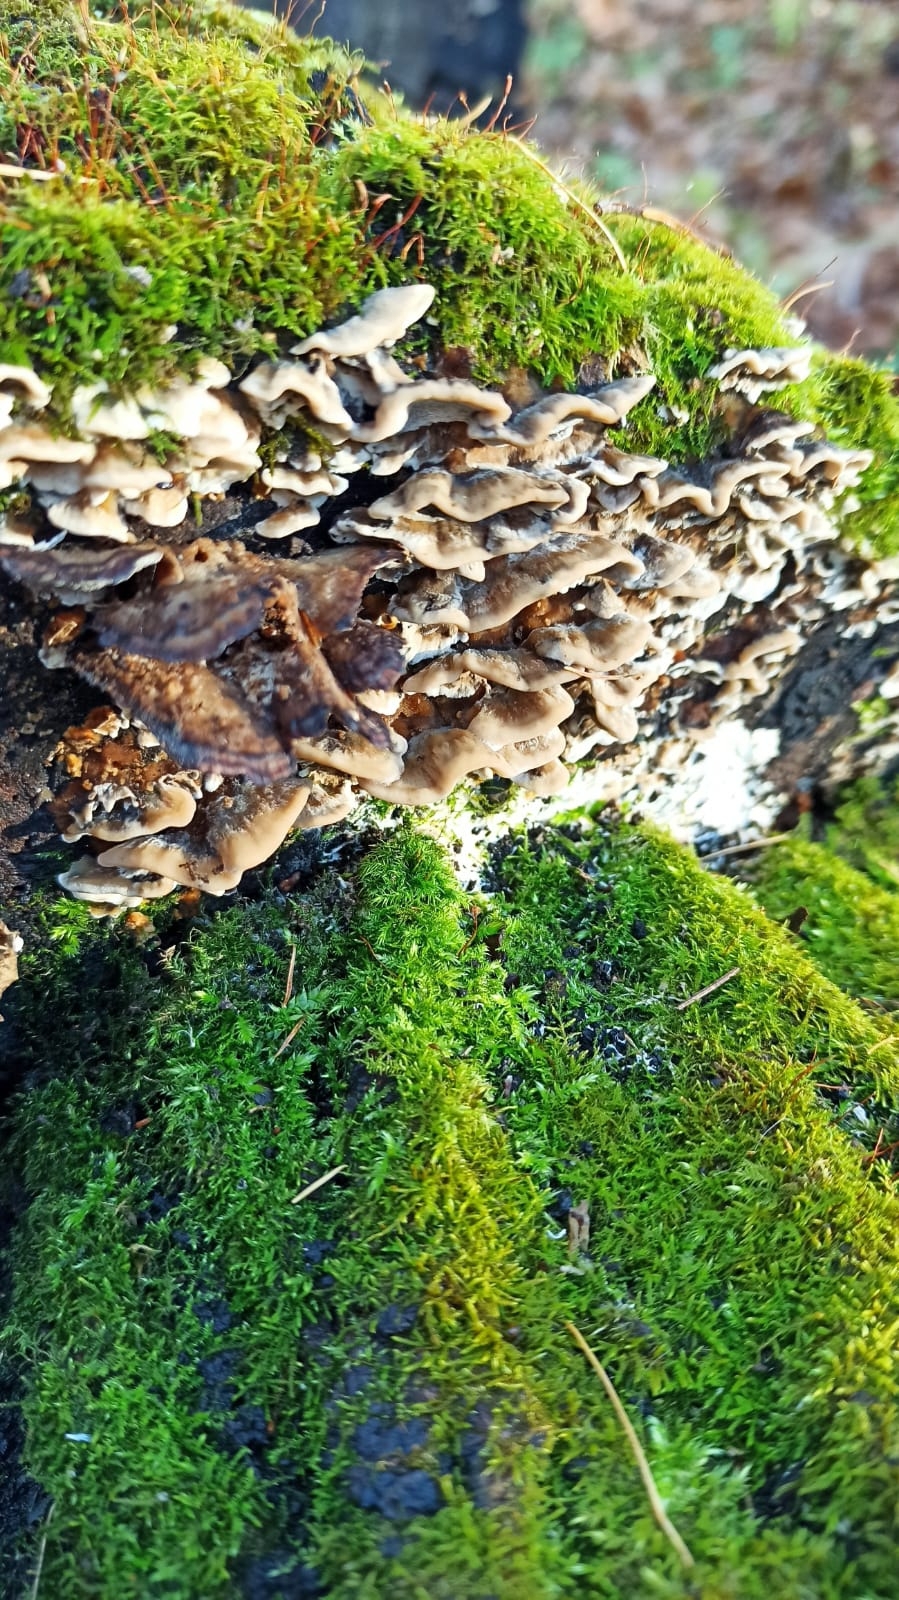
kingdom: Fungi
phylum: Basidiomycota
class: Agaricomycetes
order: Polyporales
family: Phanerochaetaceae
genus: Bjerkandera
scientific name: Bjerkandera adusta
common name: Smoky bracket
